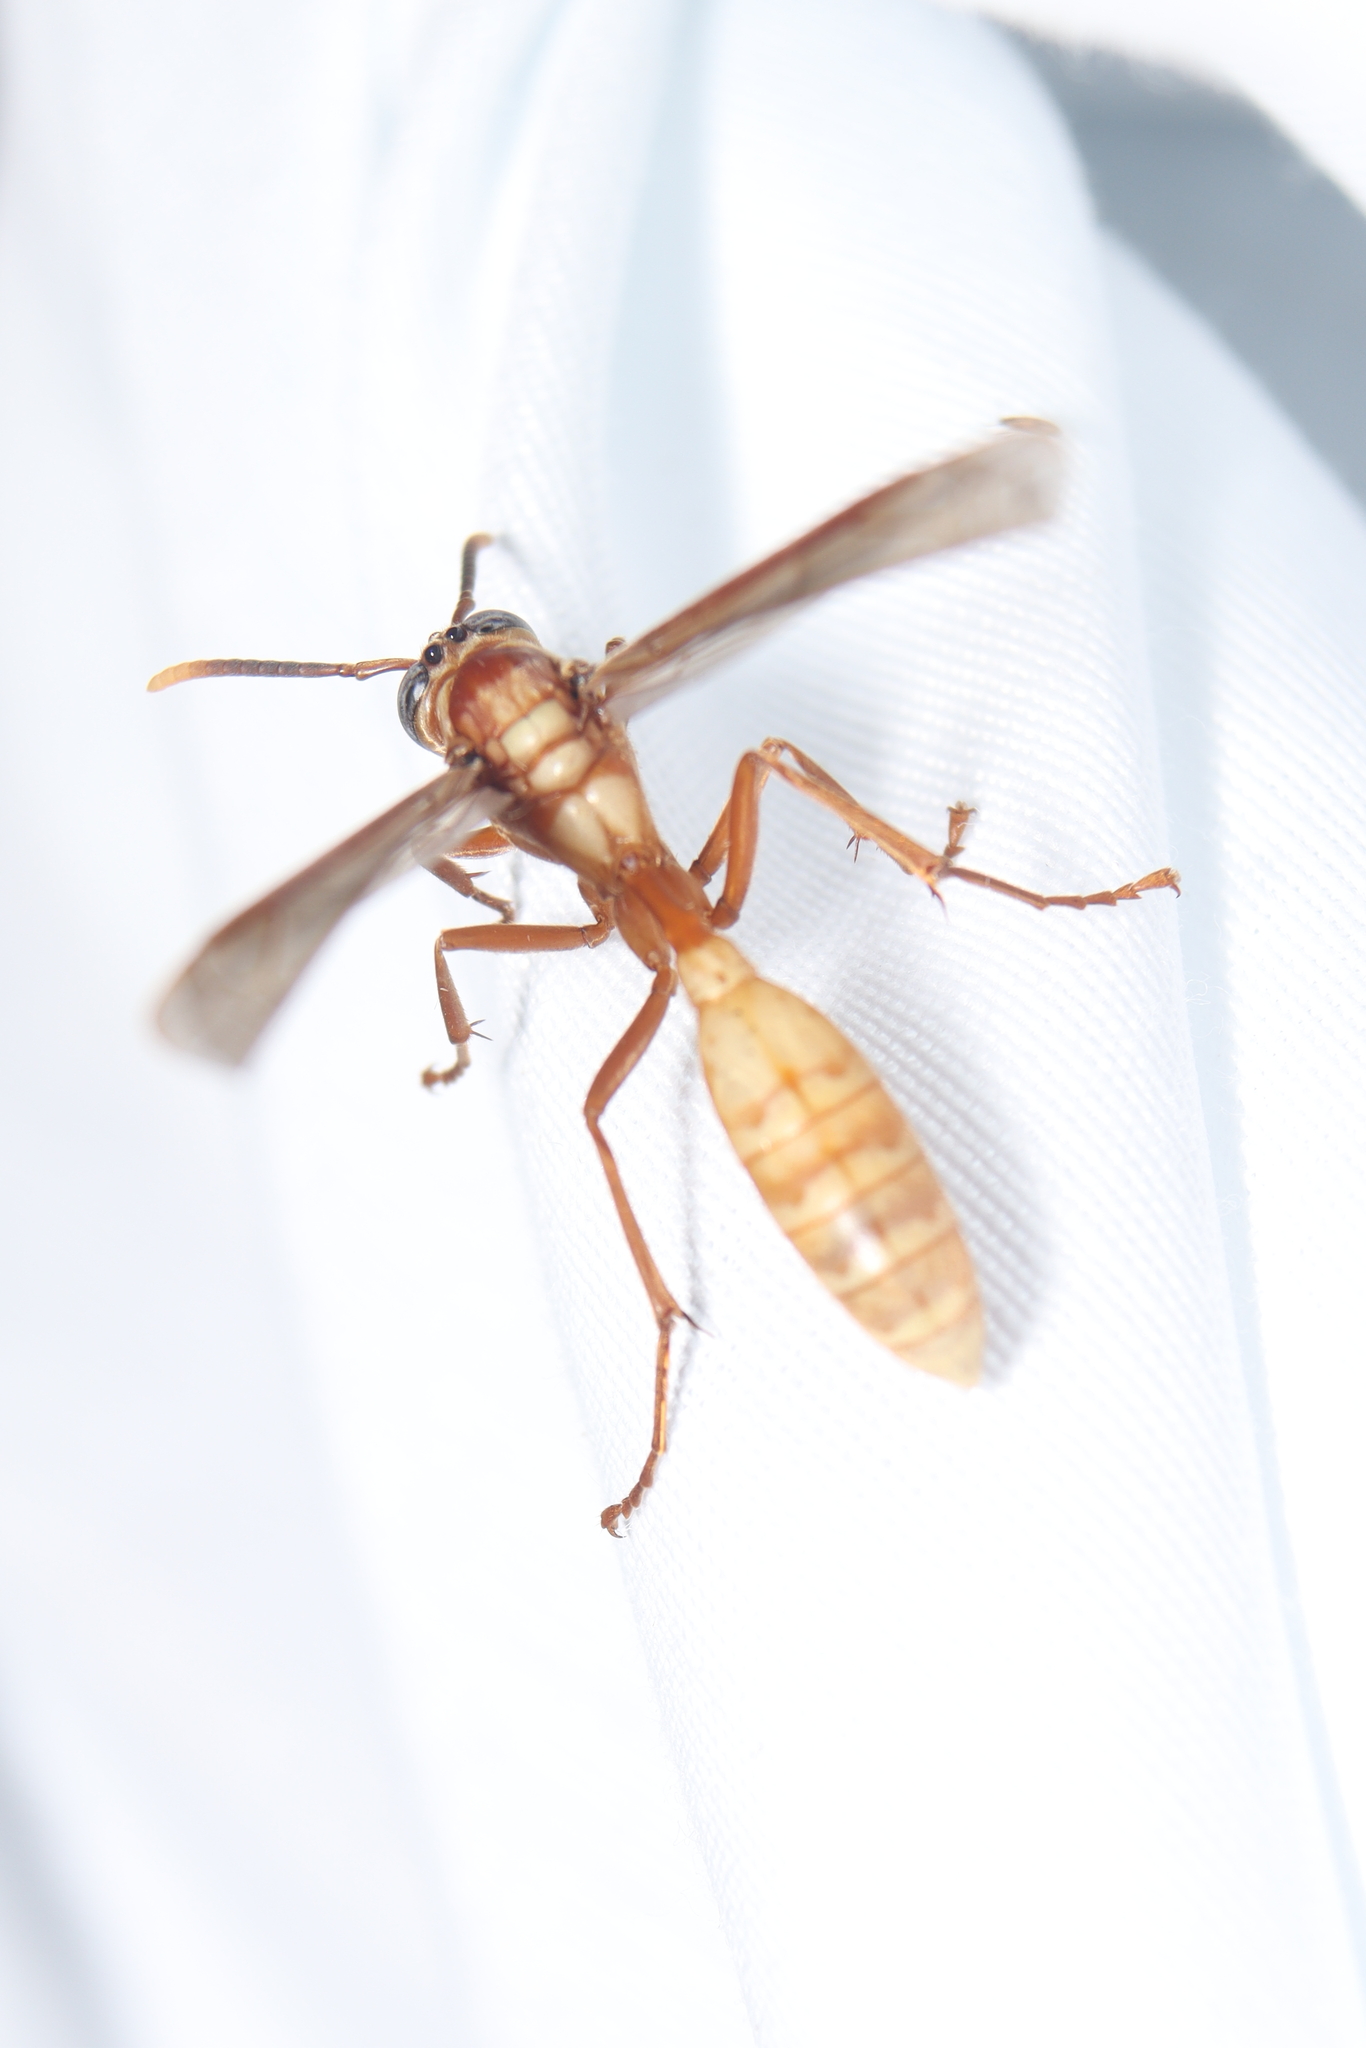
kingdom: Animalia
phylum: Arthropoda
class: Insecta
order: Hymenoptera
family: Vespidae
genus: Apoica
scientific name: Apoica flavissima
